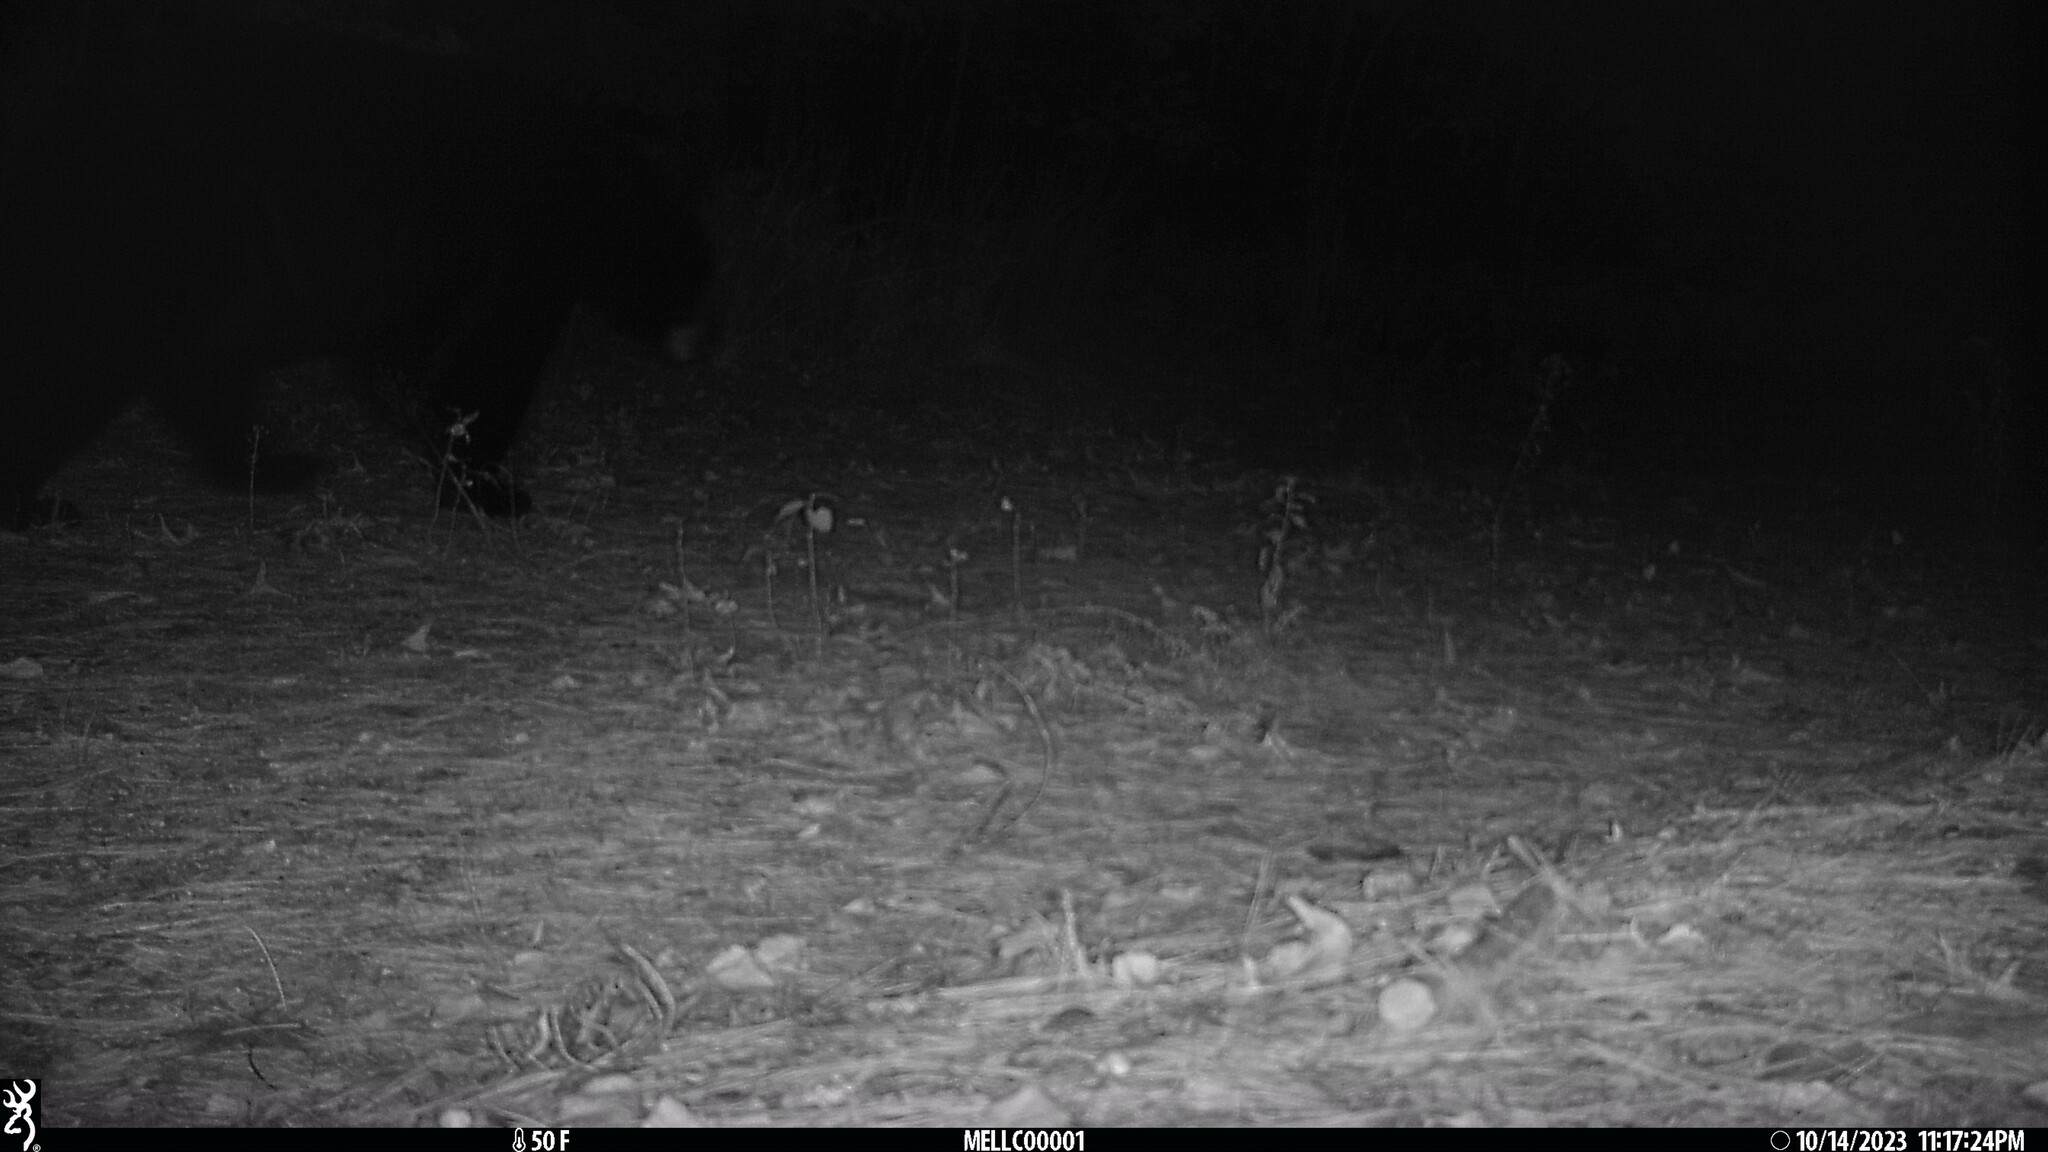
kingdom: Animalia
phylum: Chordata
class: Mammalia
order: Carnivora
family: Ursidae
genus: Ursus
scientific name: Ursus americanus
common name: American black bear
